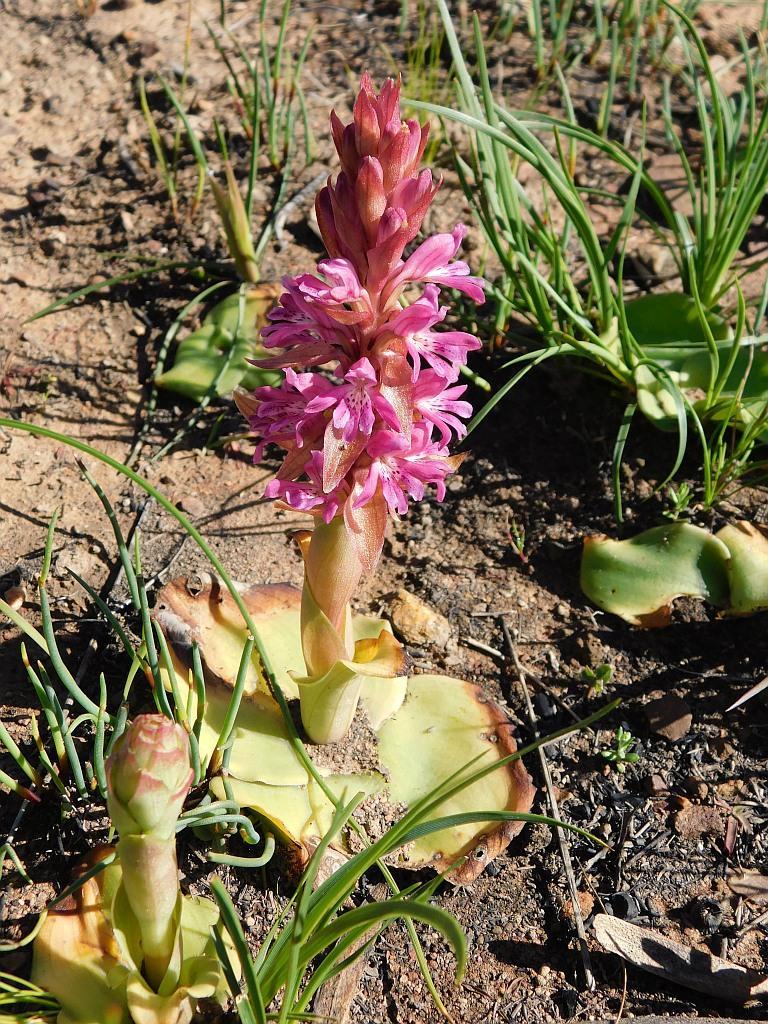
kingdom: Plantae
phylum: Tracheophyta
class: Liliopsida
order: Asparagales
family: Orchidaceae
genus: Satyrium
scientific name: Satyrium erectum
